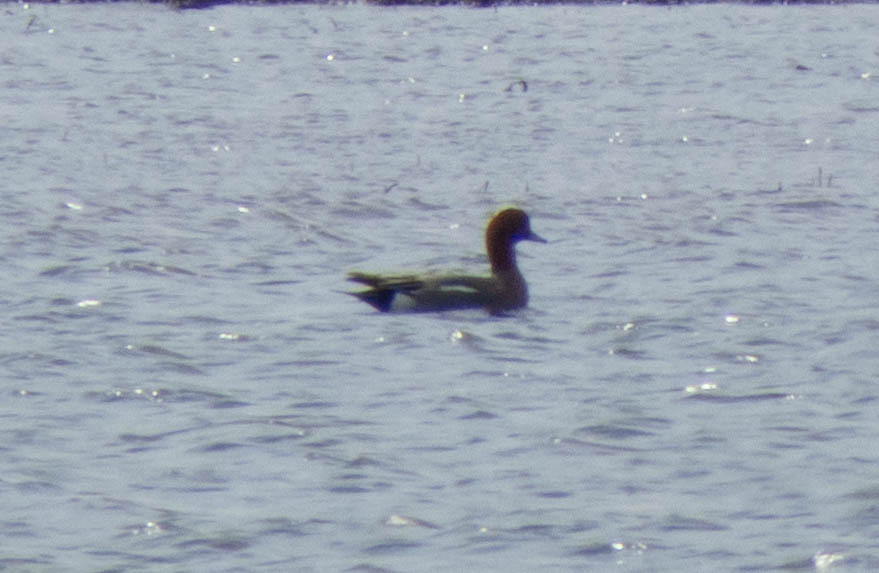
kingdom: Animalia
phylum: Chordata
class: Aves
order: Anseriformes
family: Anatidae
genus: Mareca
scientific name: Mareca penelope
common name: Eurasian wigeon
